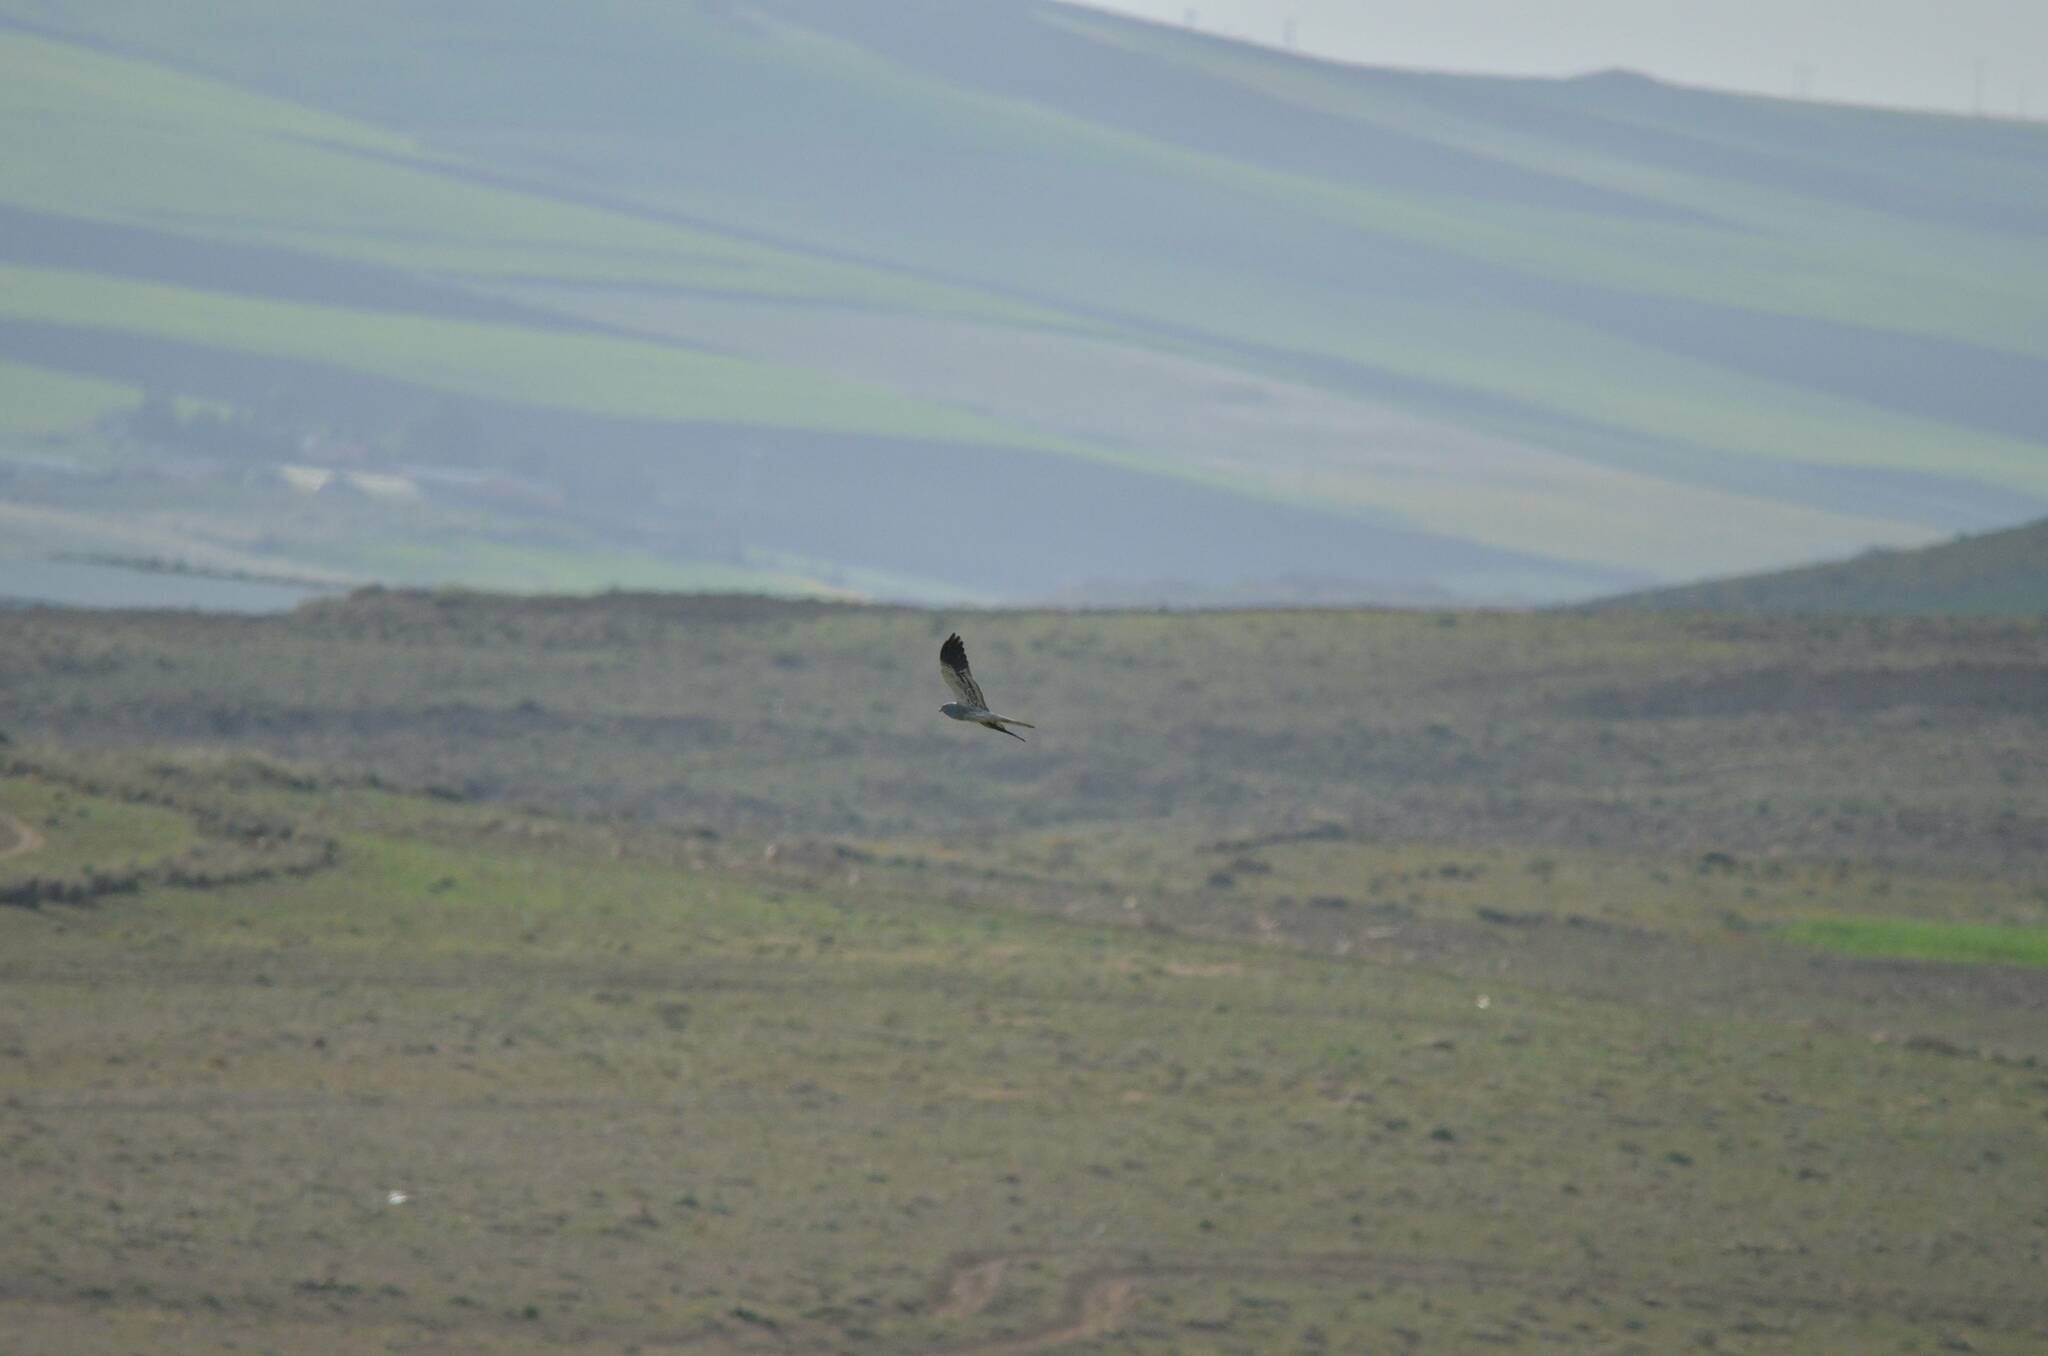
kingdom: Animalia
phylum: Chordata
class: Aves
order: Accipitriformes
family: Accipitridae
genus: Circus
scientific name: Circus pygargus
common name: Montagu's harrier
